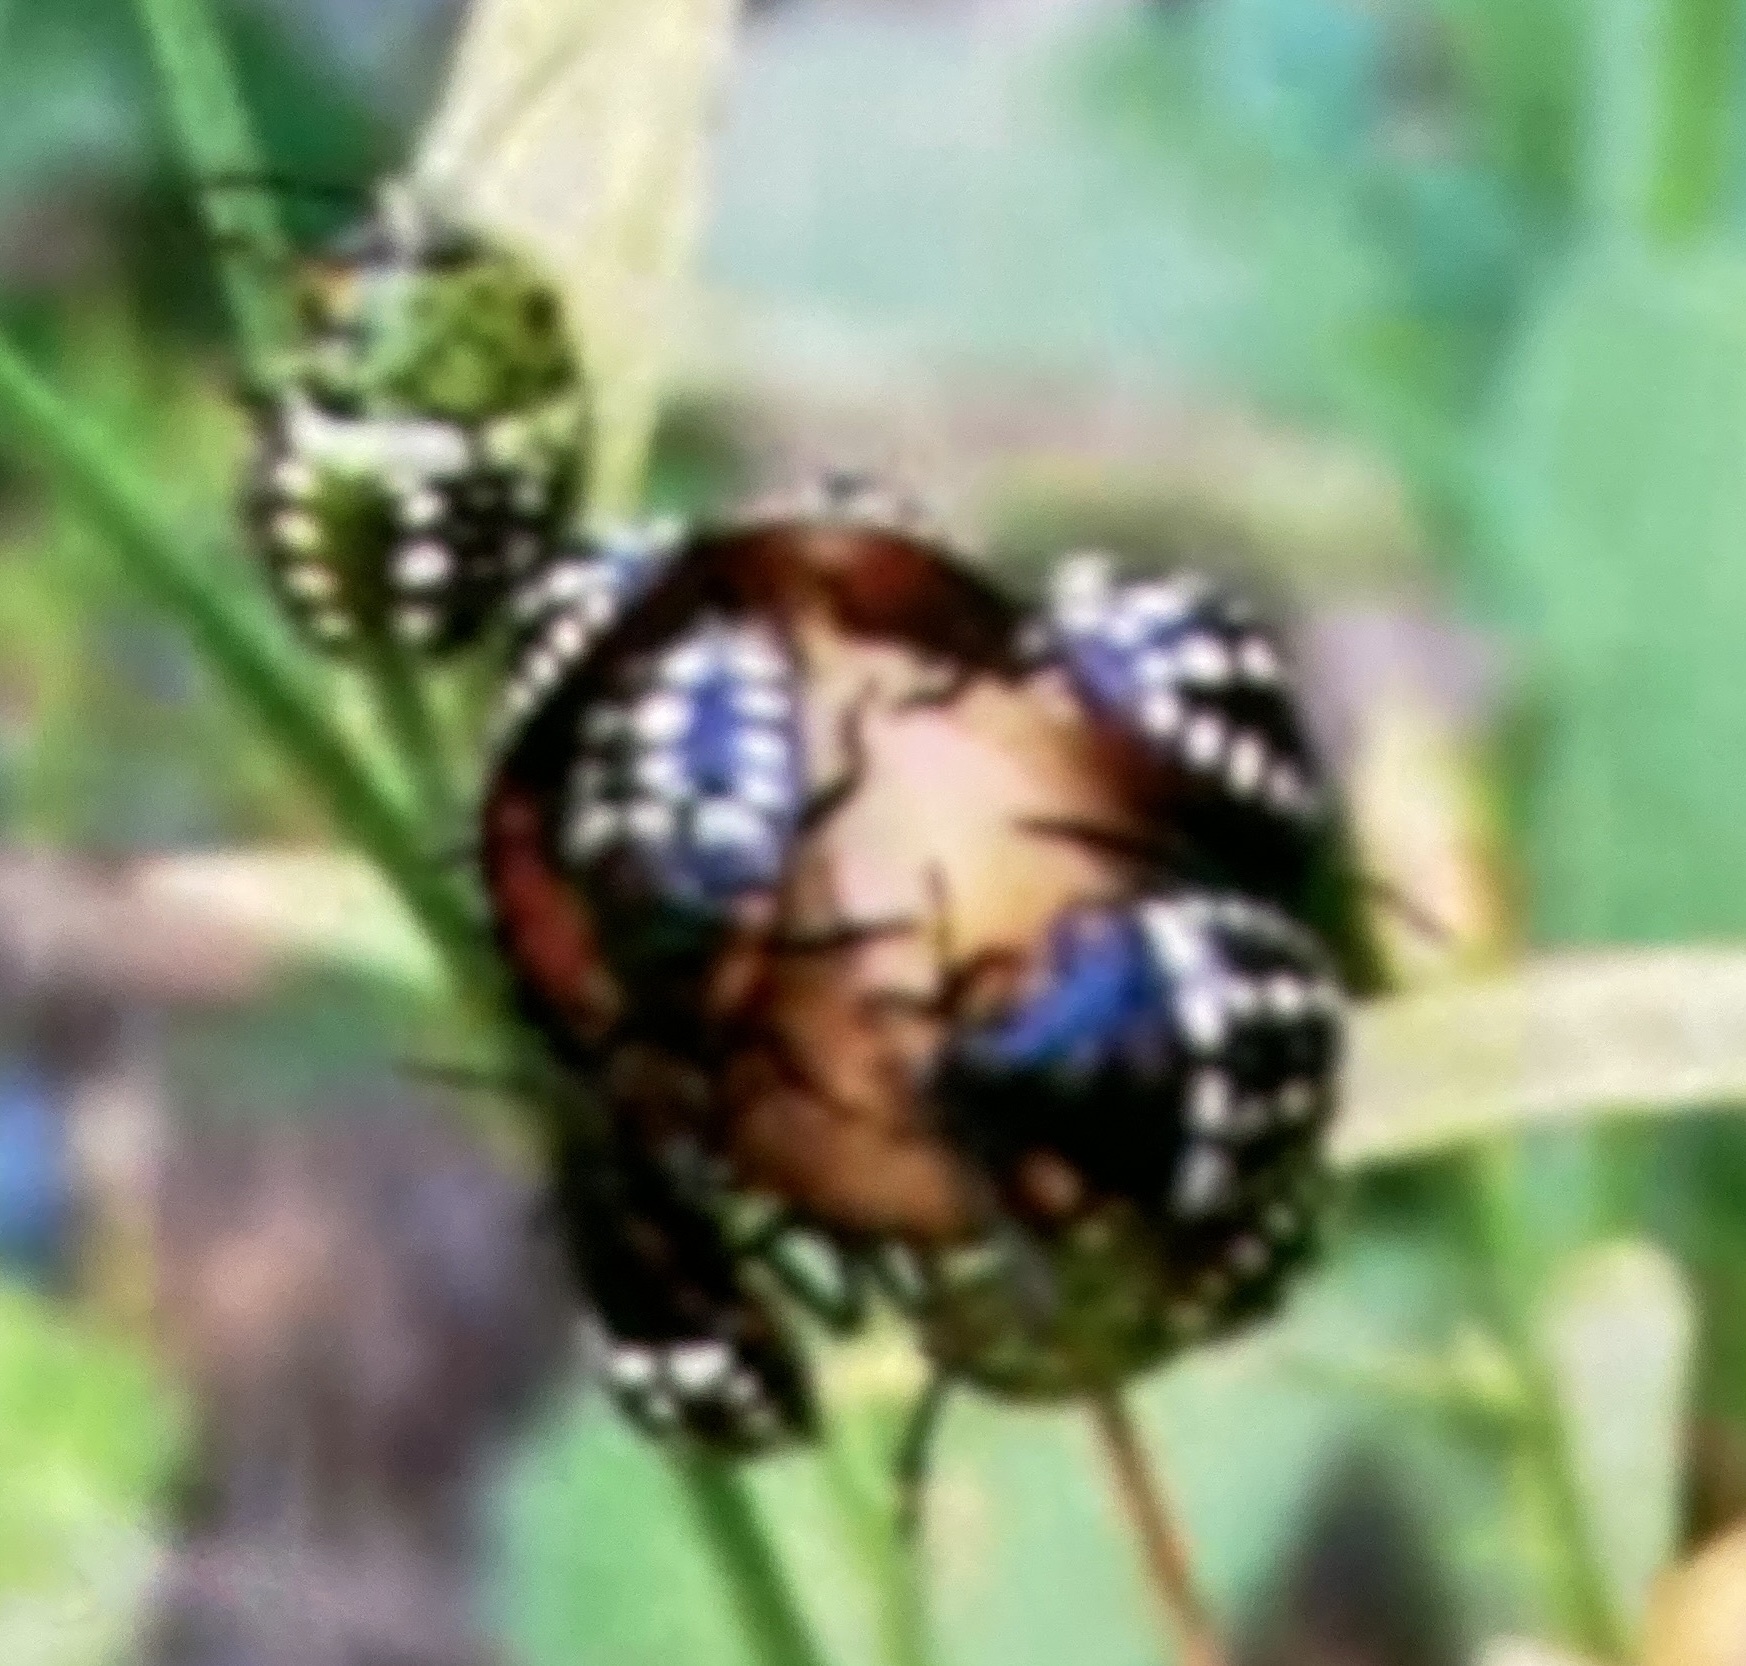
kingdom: Animalia
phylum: Arthropoda
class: Insecta
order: Hemiptera
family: Pentatomidae
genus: Nezara
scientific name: Nezara viridula
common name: Southern green stink bug
